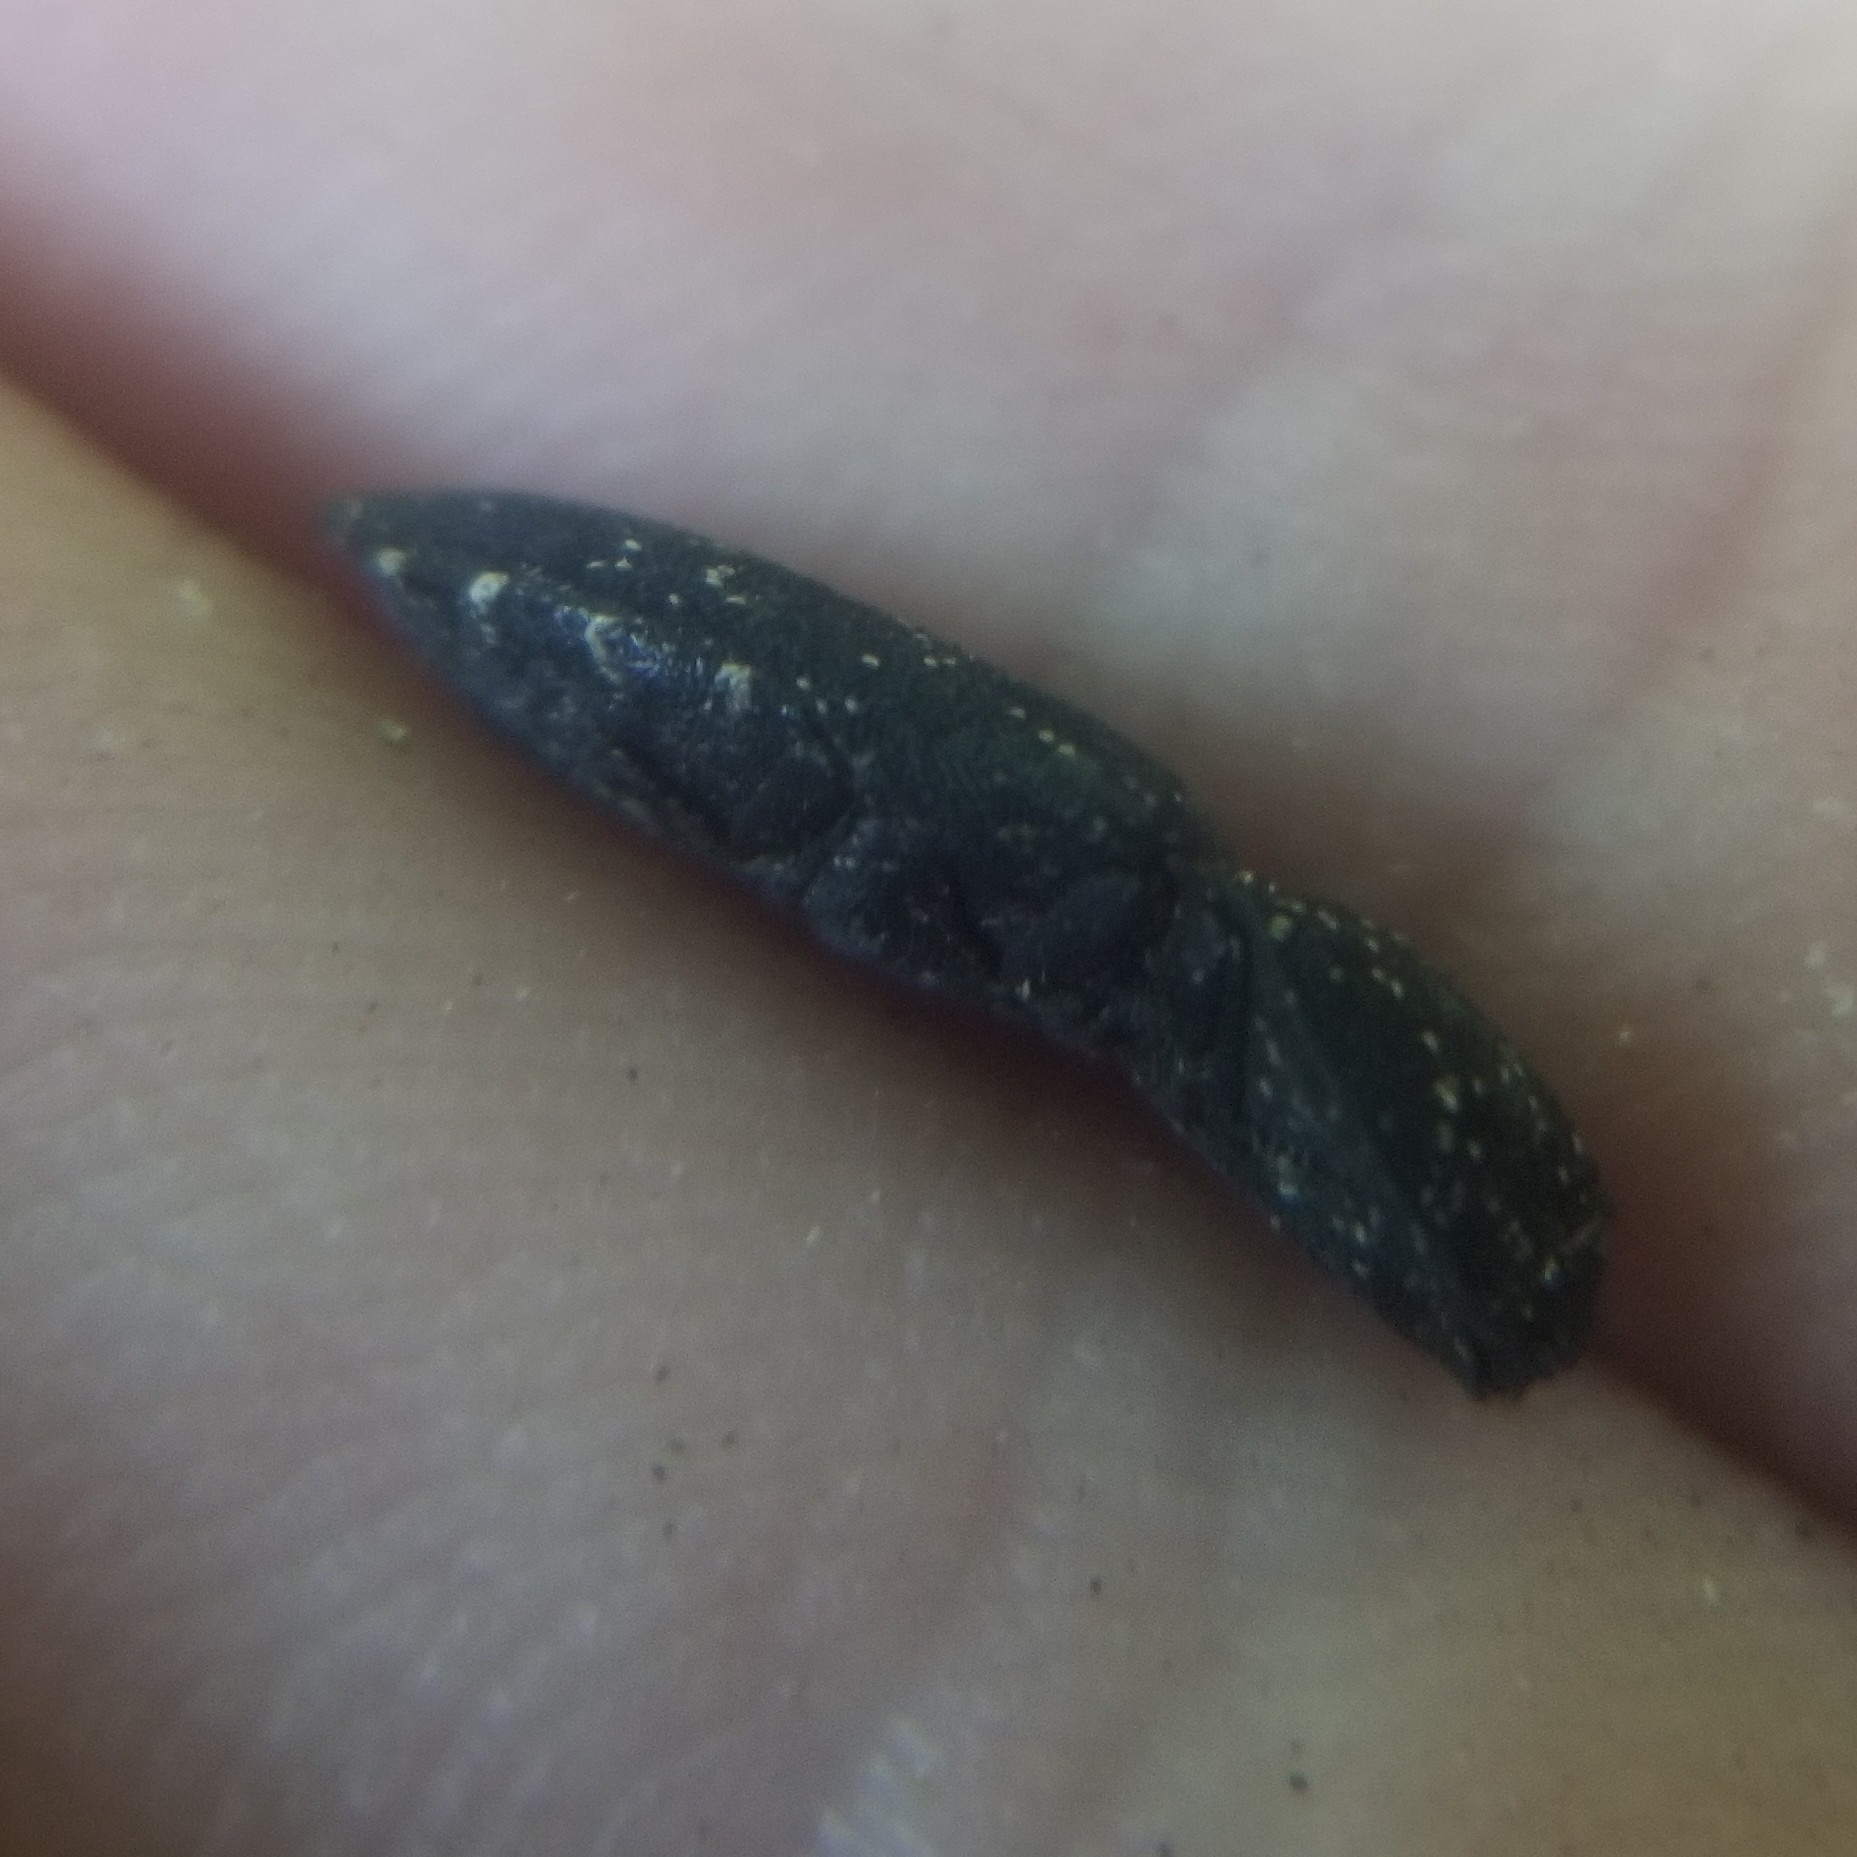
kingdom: Animalia
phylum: Arthropoda
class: Insecta
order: Coleoptera
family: Elateridae
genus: Lacon
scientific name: Lacon sparsus
